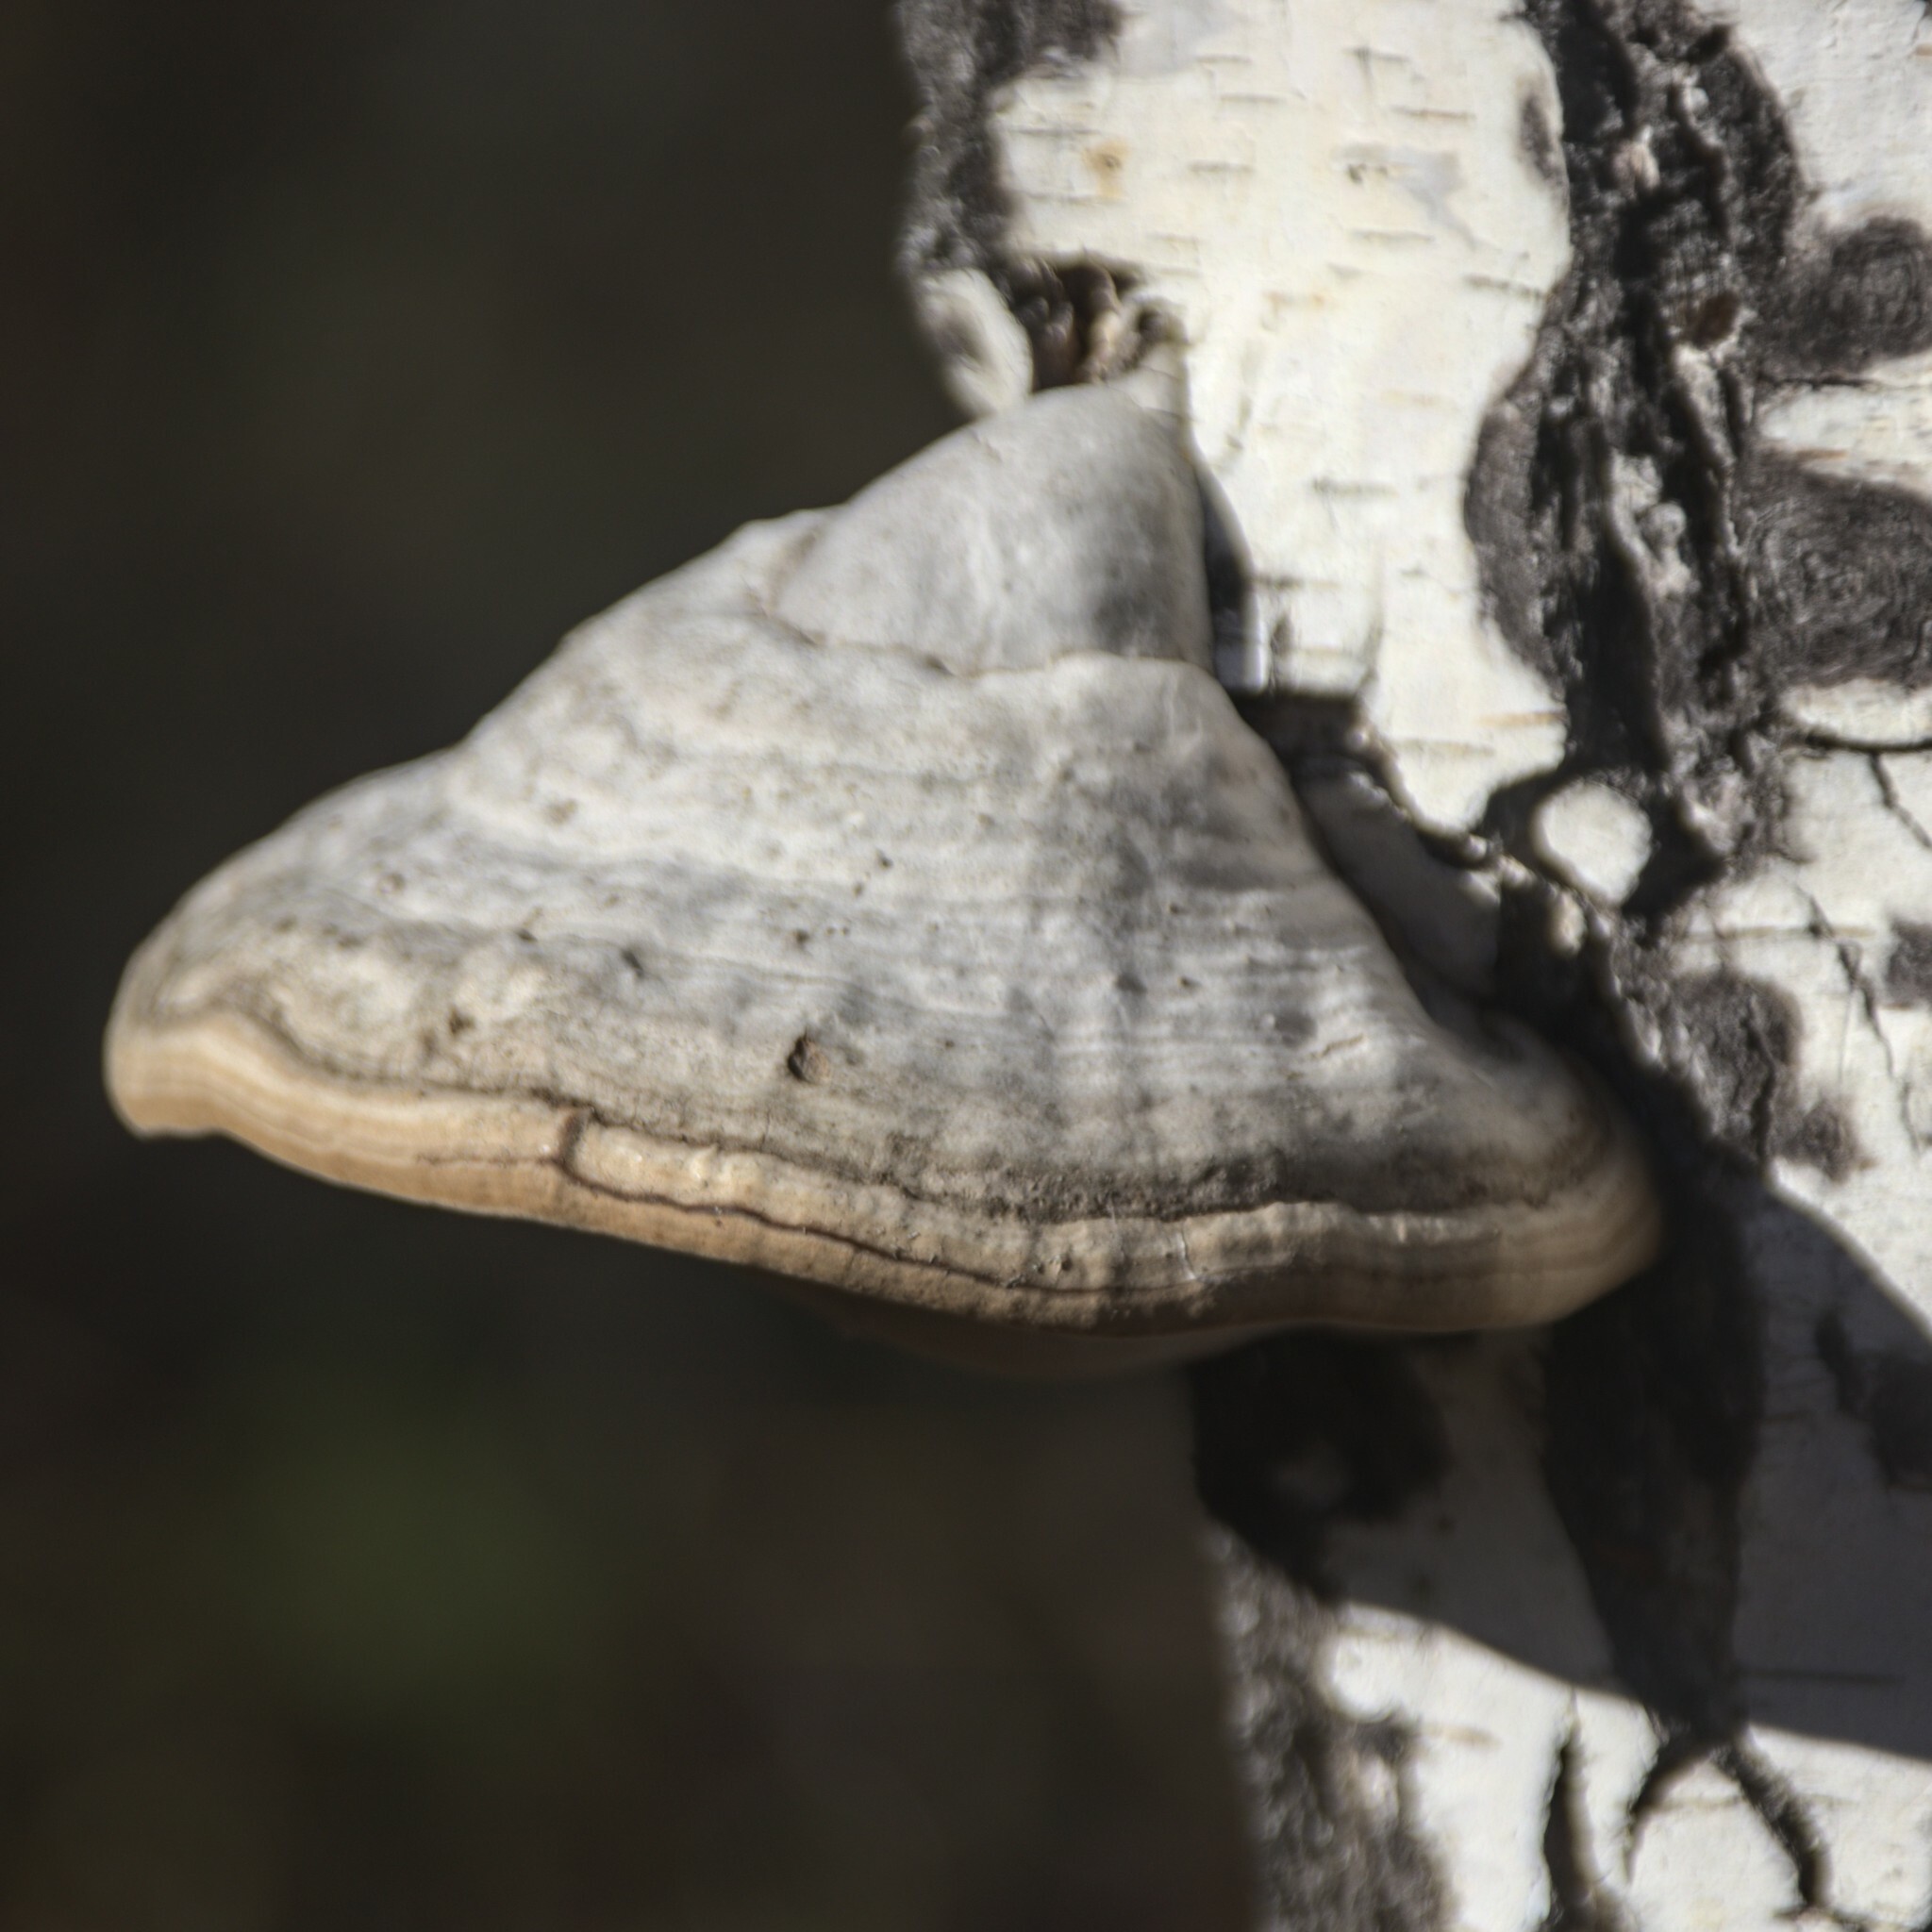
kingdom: Fungi
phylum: Basidiomycota
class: Agaricomycetes
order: Polyporales
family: Polyporaceae
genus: Fomes
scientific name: Fomes fomentarius
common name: Hoof fungus
